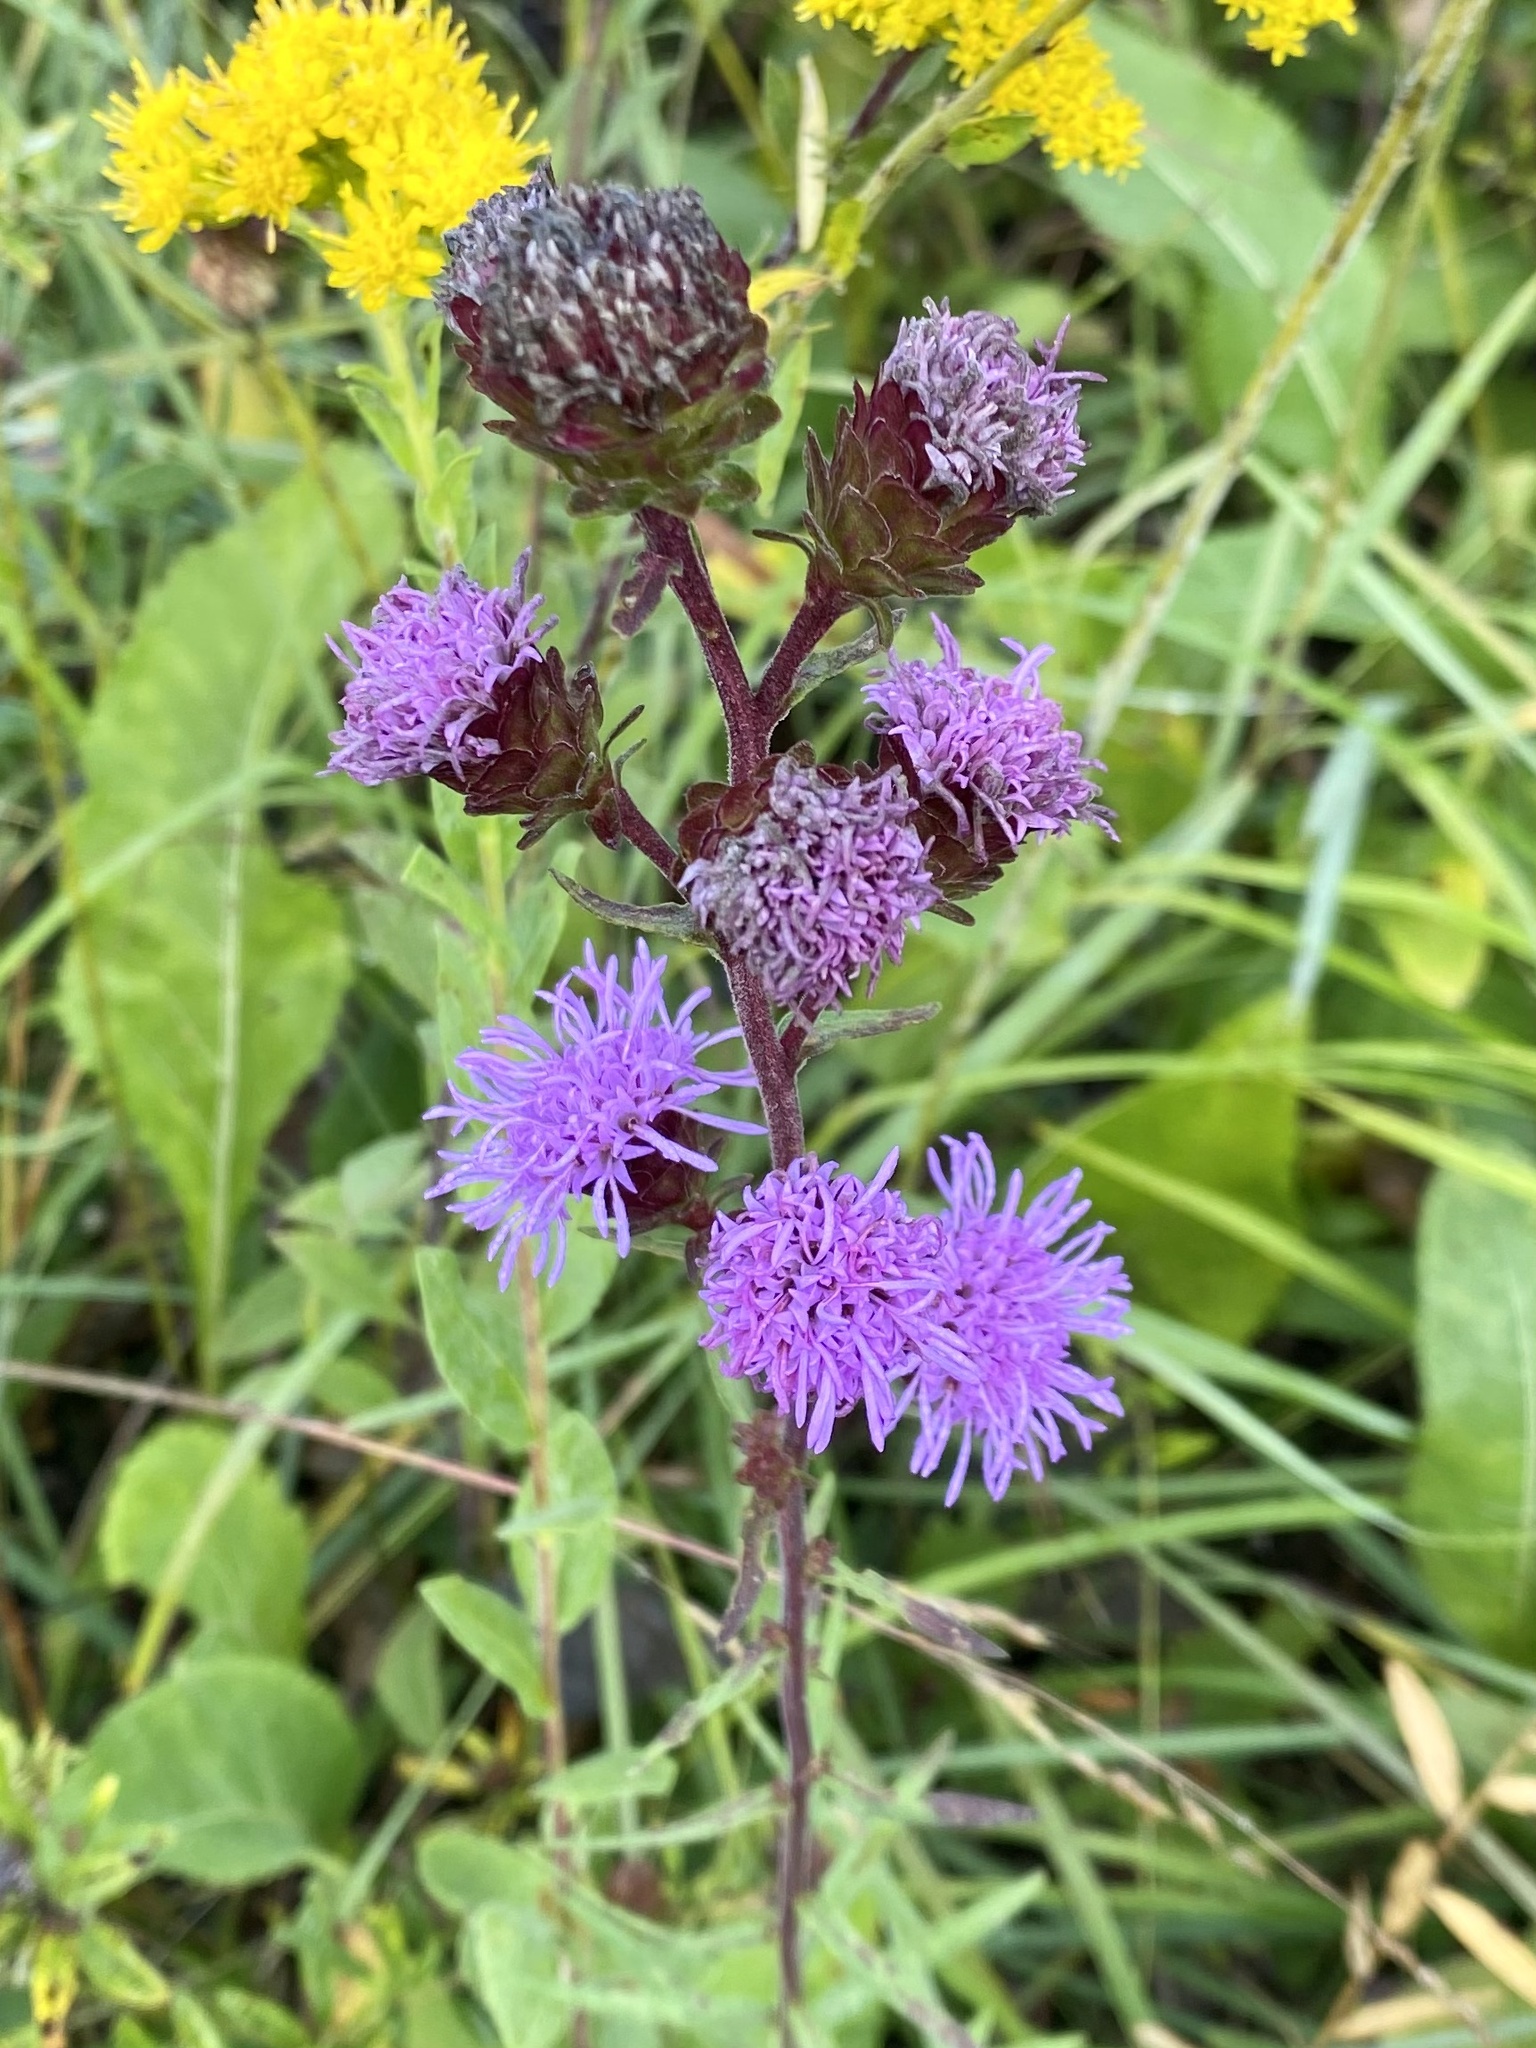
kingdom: Plantae
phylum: Tracheophyta
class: Magnoliopsida
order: Asterales
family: Asteraceae
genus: Liatris
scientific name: Liatris scariosa
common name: Northern gayfeather
